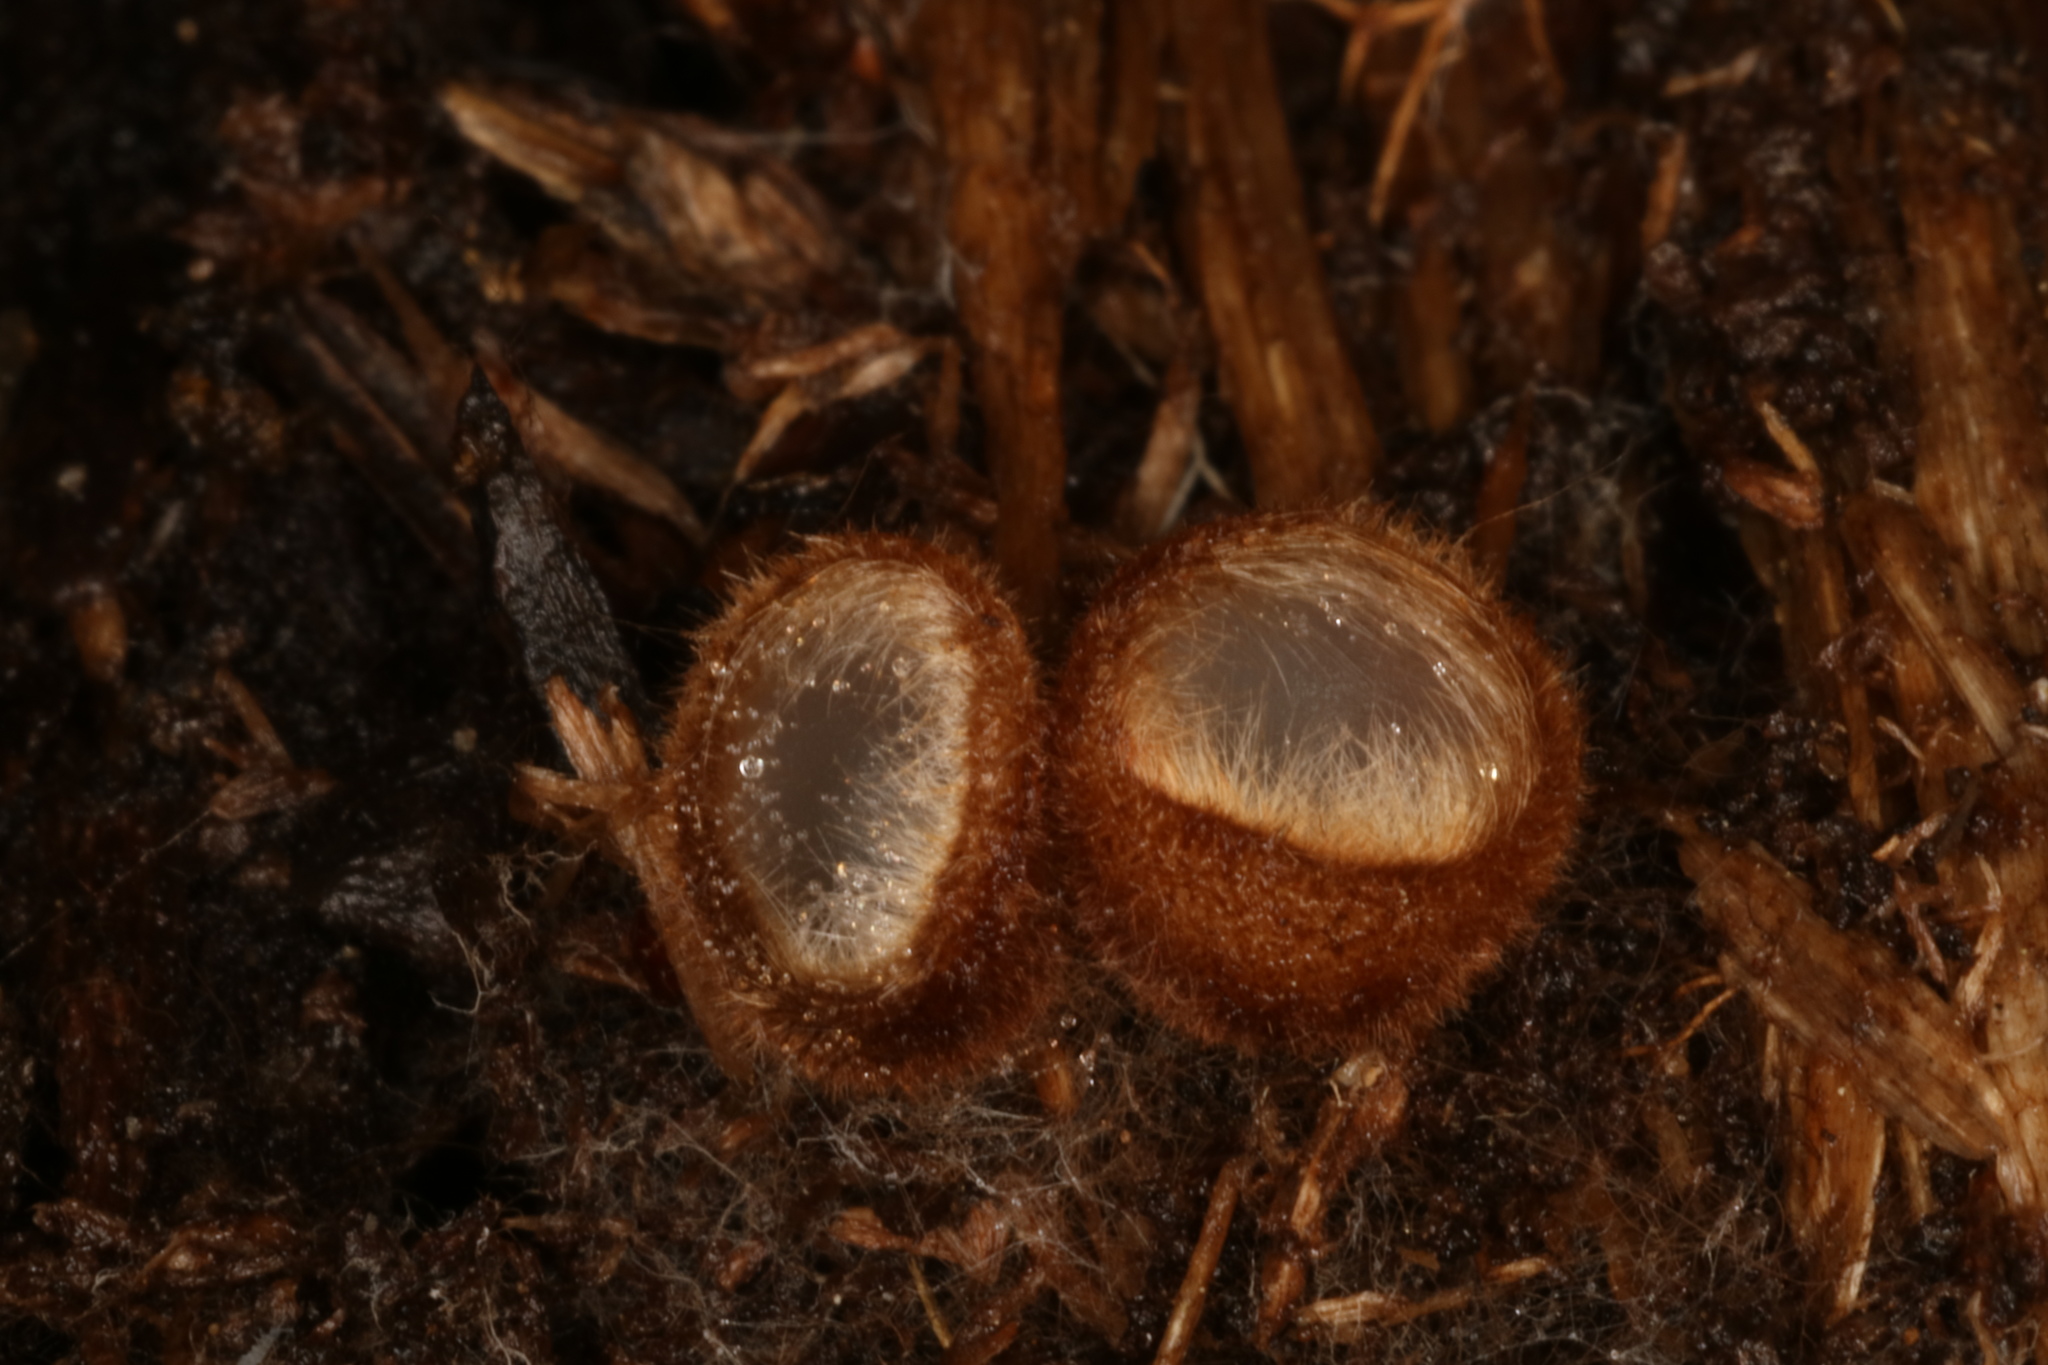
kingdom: Fungi
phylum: Ascomycota
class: Pezizomycetes
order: Pezizales
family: Pyronemataceae
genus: Humaria
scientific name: Humaria hemisphaerica
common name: Glazed cup
